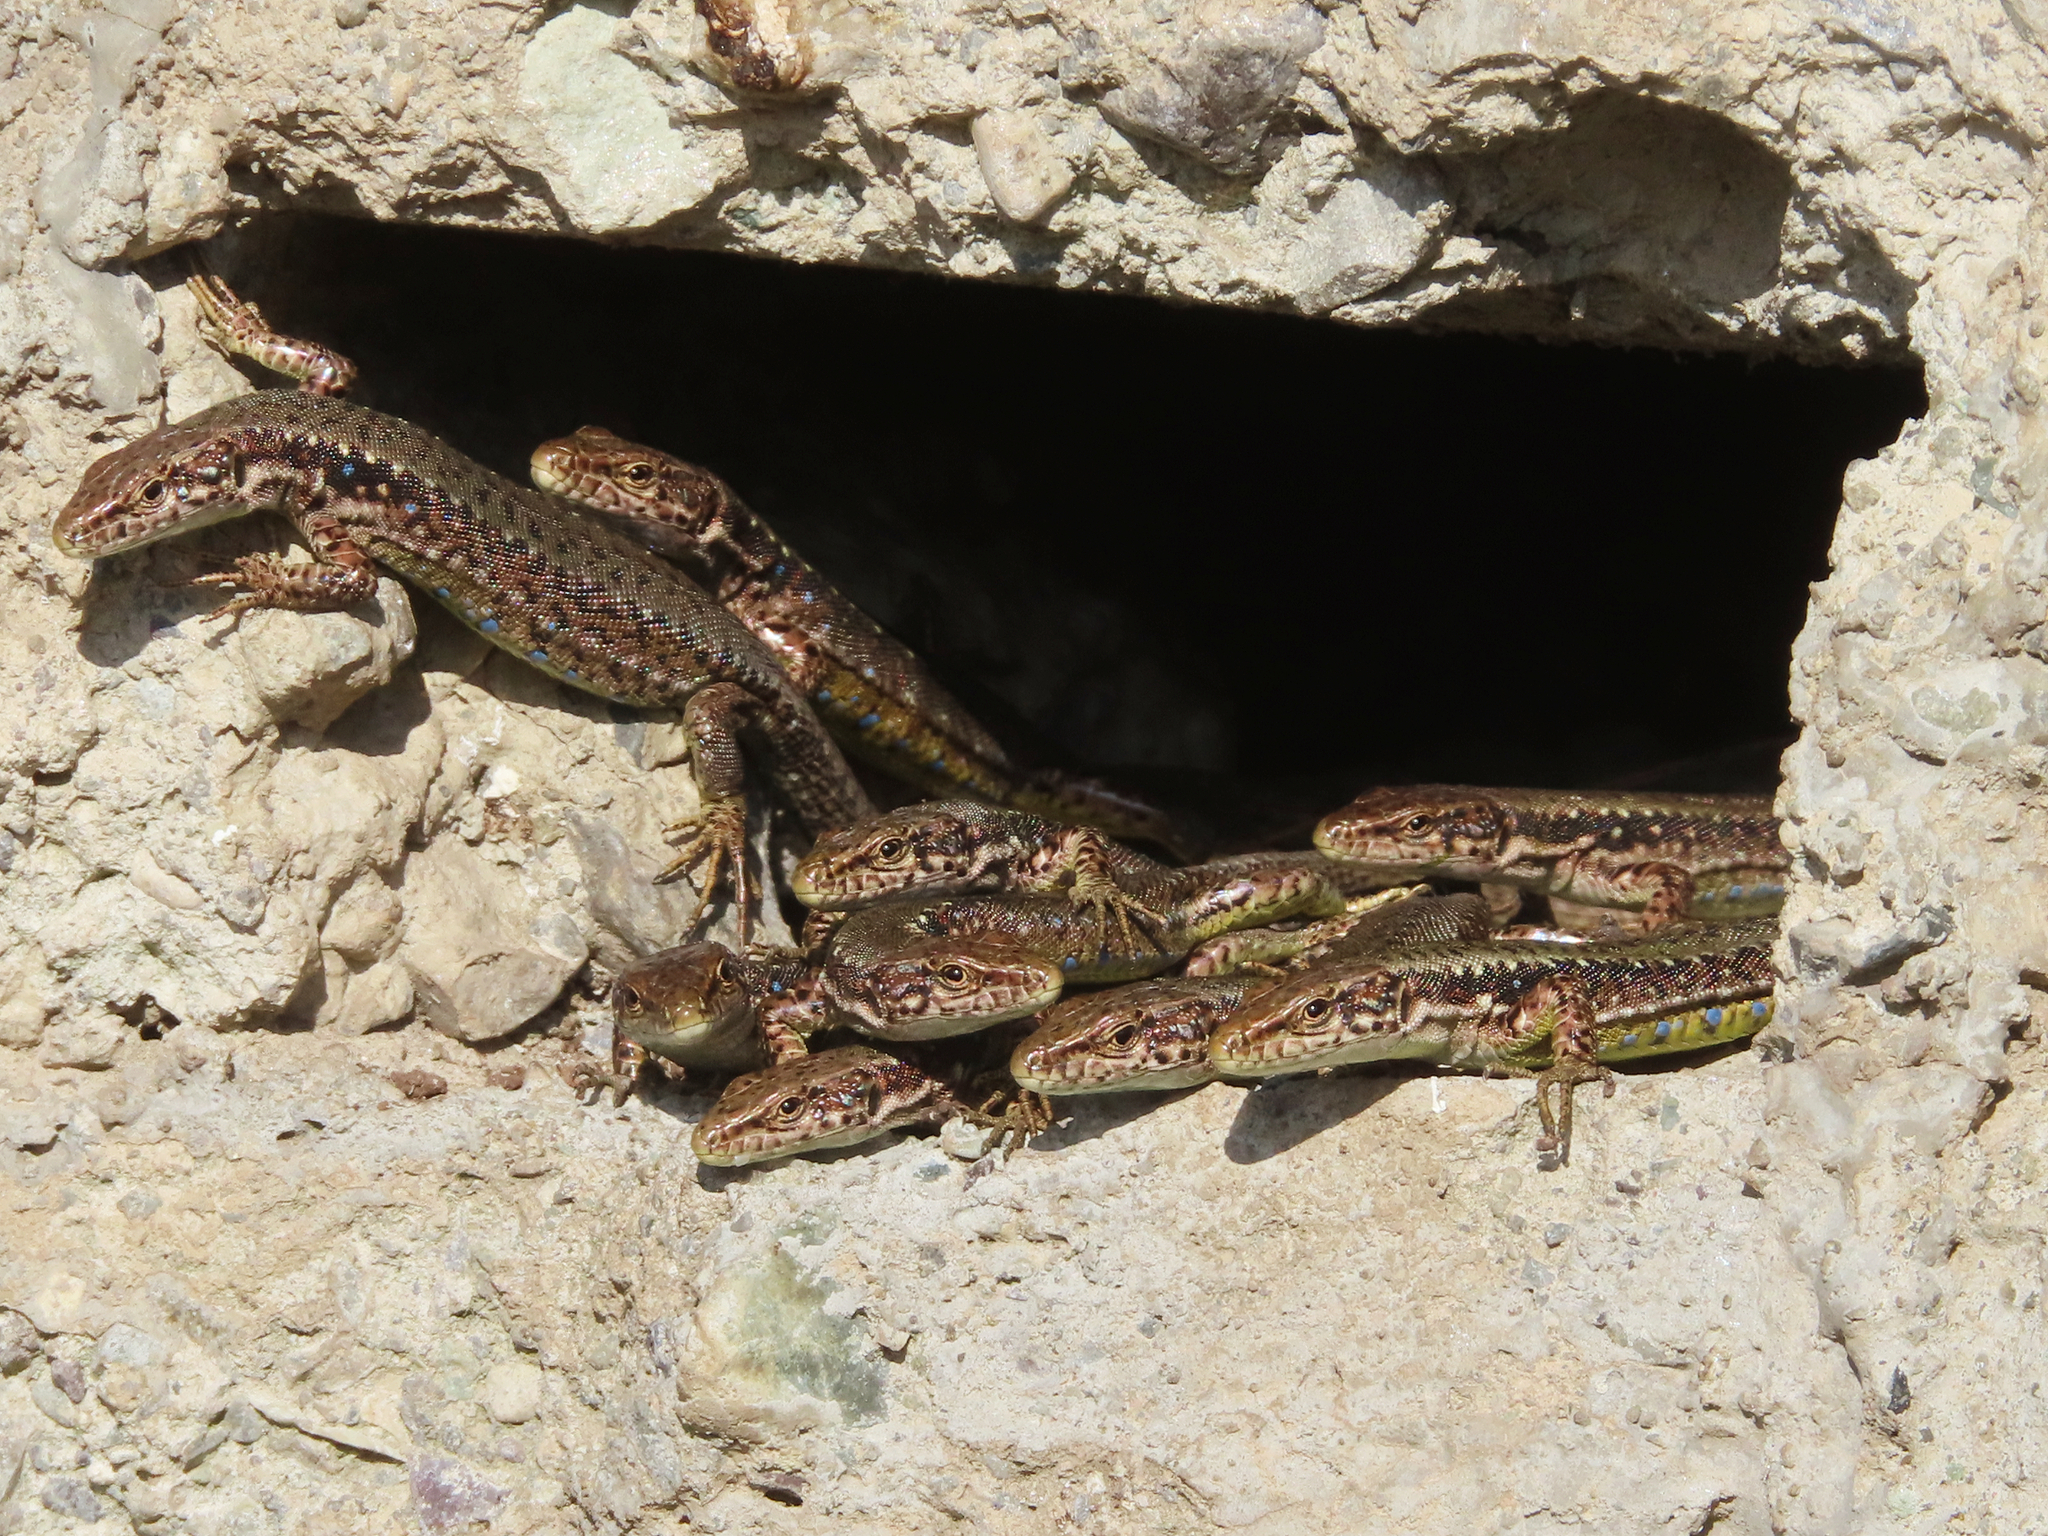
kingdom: Animalia
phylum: Chordata
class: Squamata
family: Lacertidae
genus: Darevskia
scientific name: Darevskia armeniaca
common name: Armenian lizard
